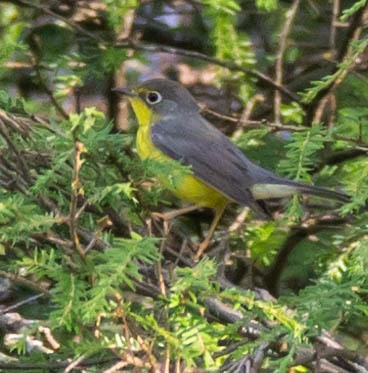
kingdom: Animalia
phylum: Chordata
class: Aves
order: Passeriformes
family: Parulidae
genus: Cardellina
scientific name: Cardellina canadensis
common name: Canada warbler
